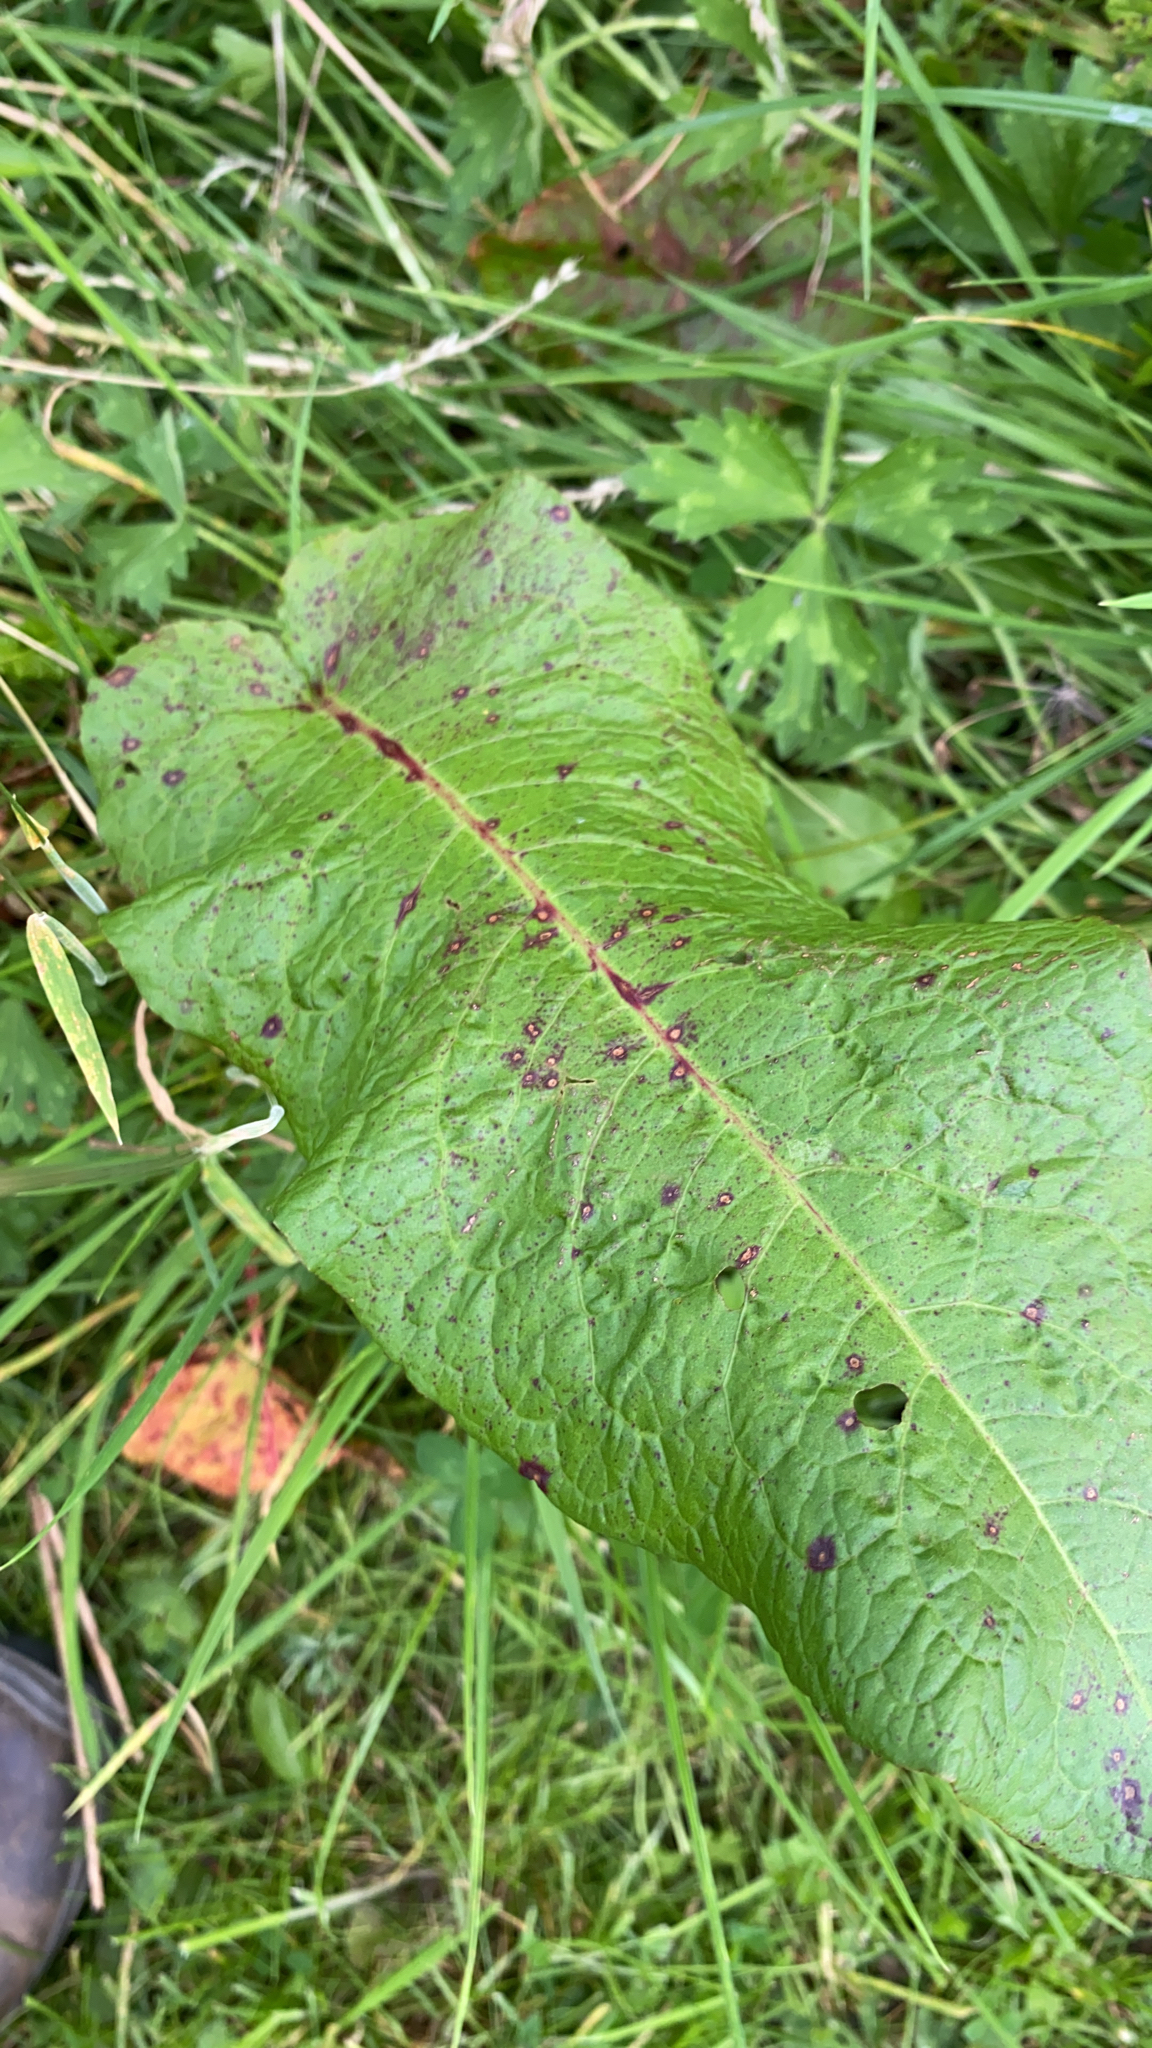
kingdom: Plantae
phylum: Tracheophyta
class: Magnoliopsida
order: Caryophyllales
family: Polygonaceae
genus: Rumex
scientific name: Rumex obtusifolius
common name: Bitter dock
